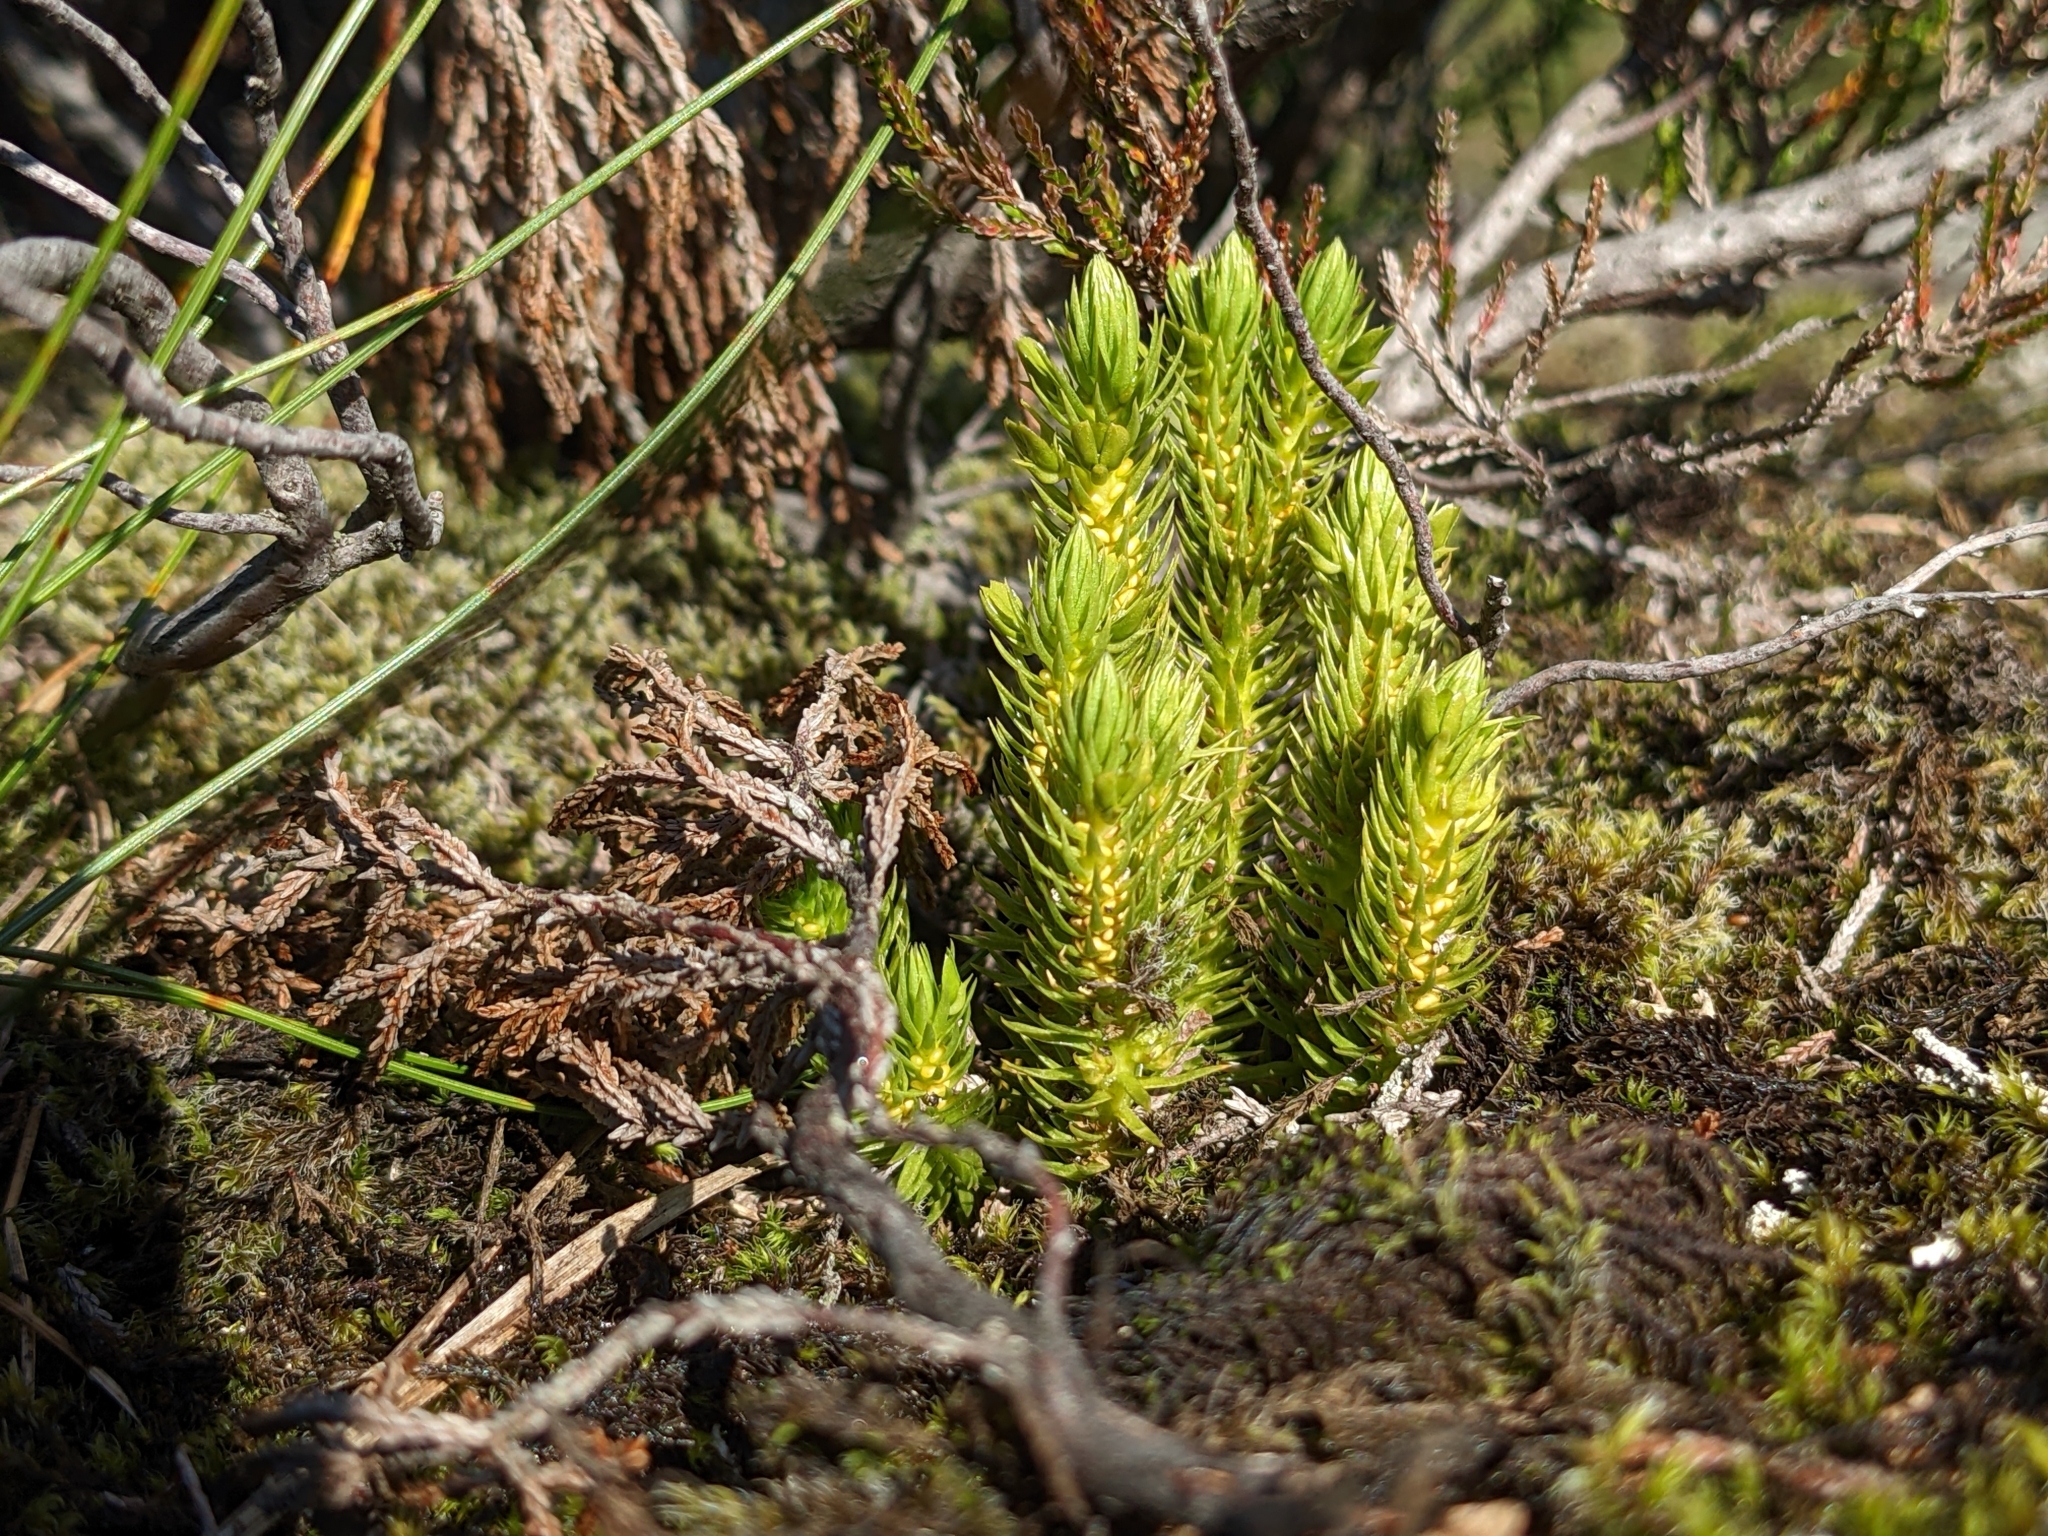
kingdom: Plantae
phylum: Tracheophyta
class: Lycopodiopsida
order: Lycopodiales
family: Lycopodiaceae
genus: Huperzia
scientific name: Huperzia selago
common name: Northern firmoss
